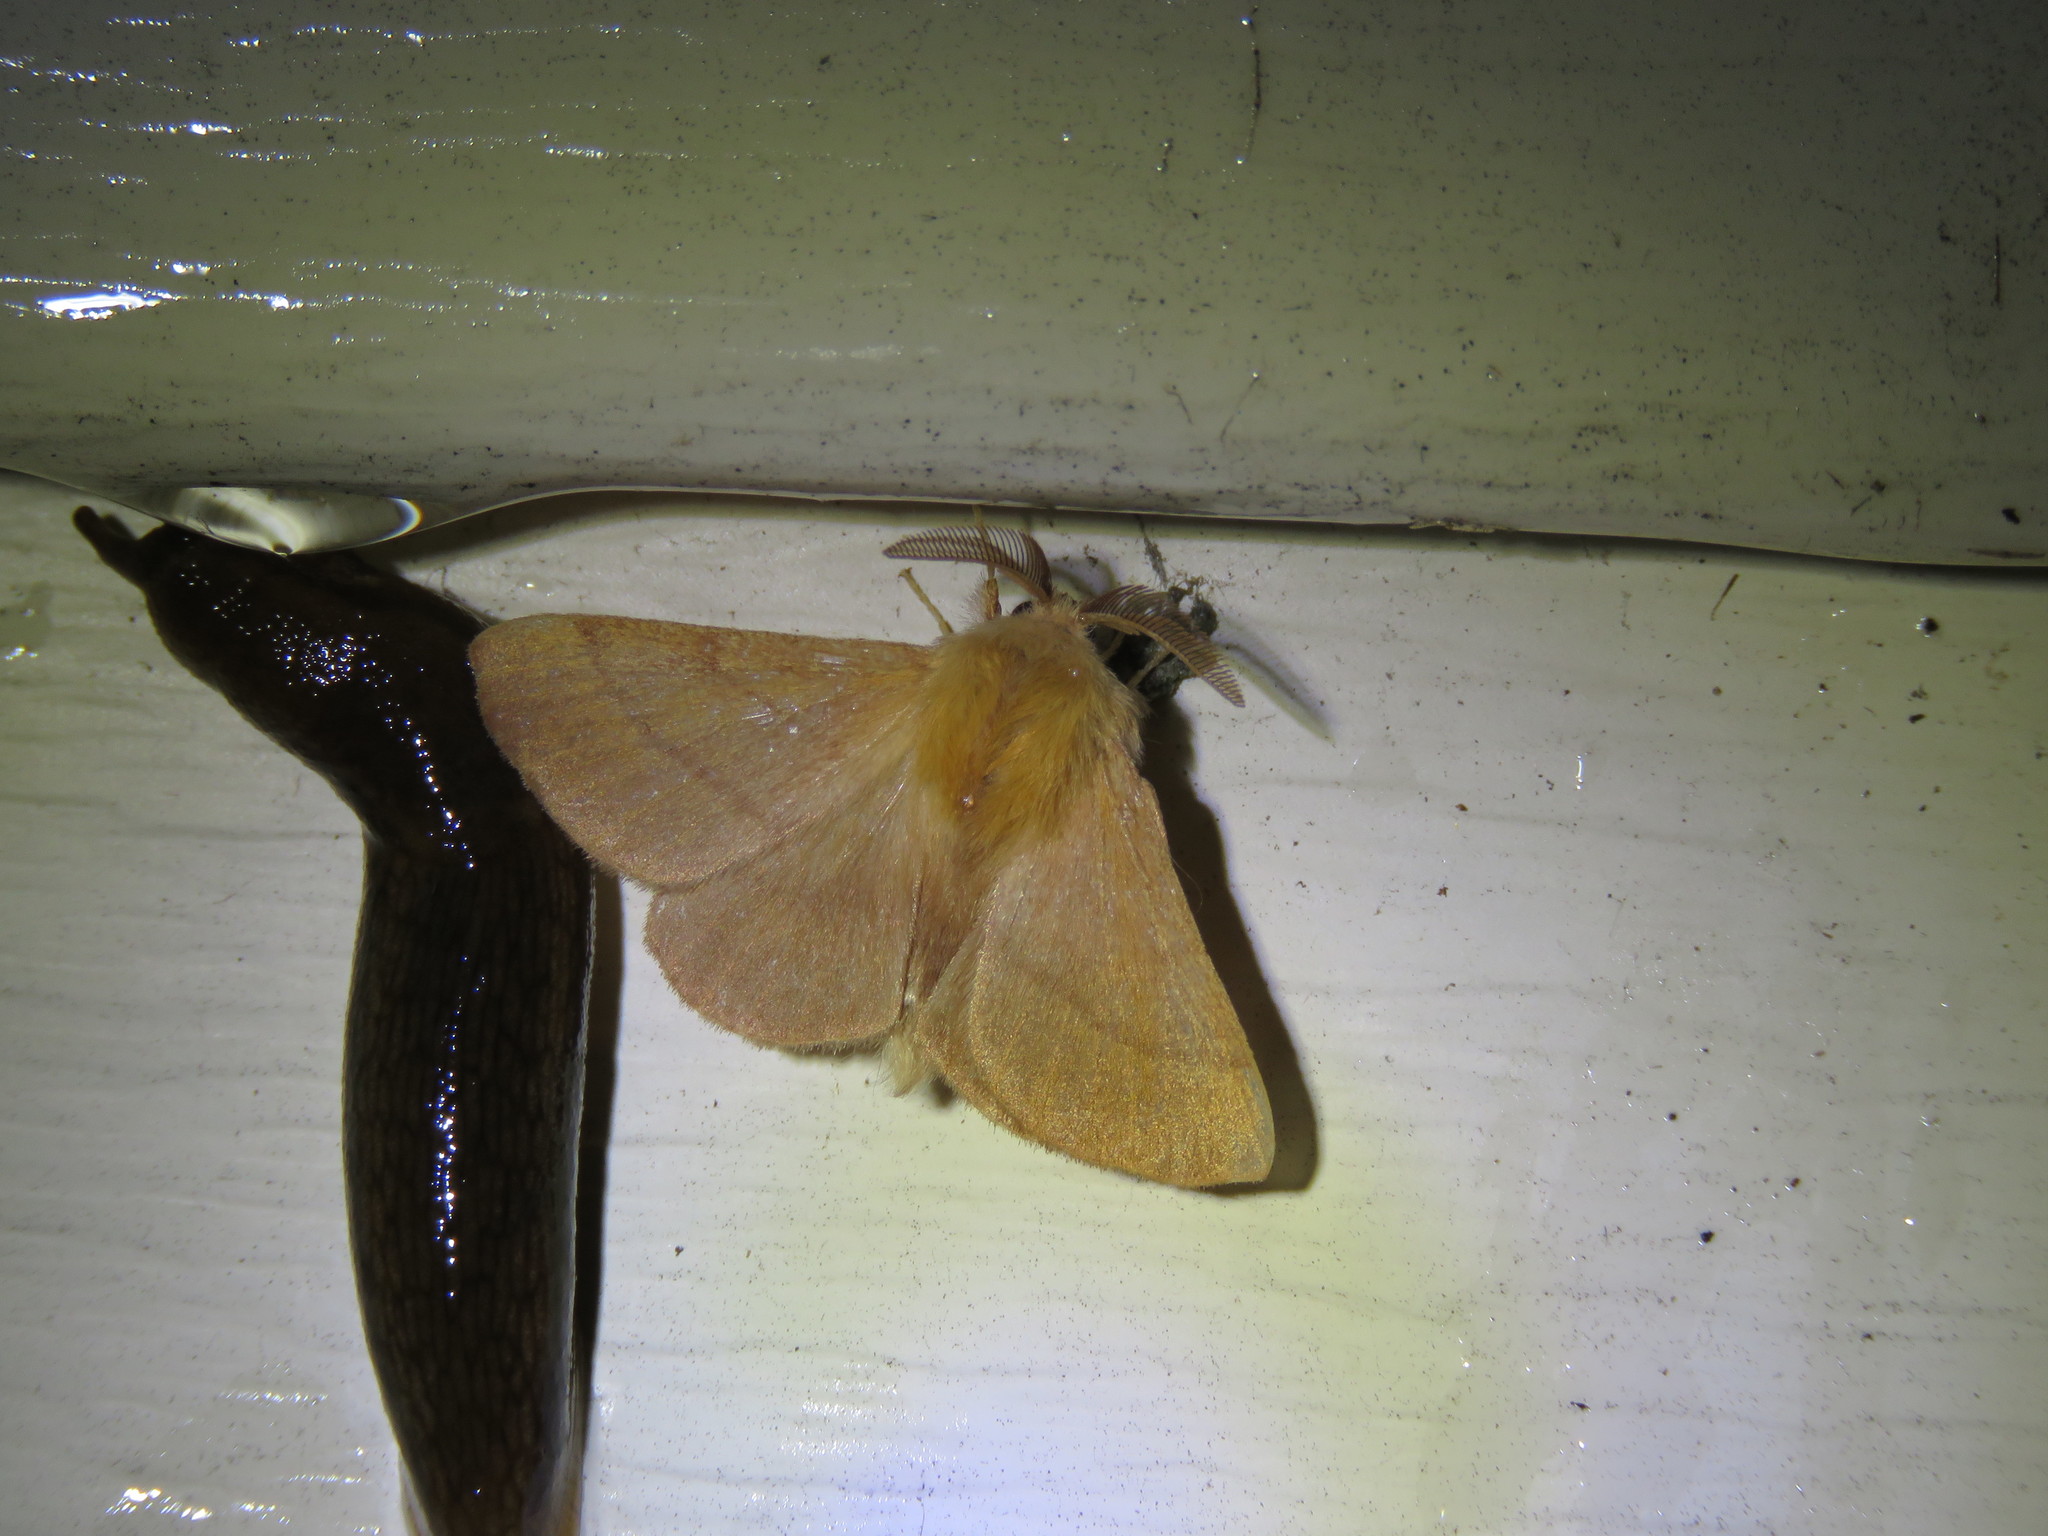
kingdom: Animalia
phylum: Arthropoda
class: Insecta
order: Lepidoptera
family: Lasiocampidae
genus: Malacosoma
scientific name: Malacosoma disstria
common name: Forest tent caterpillar
